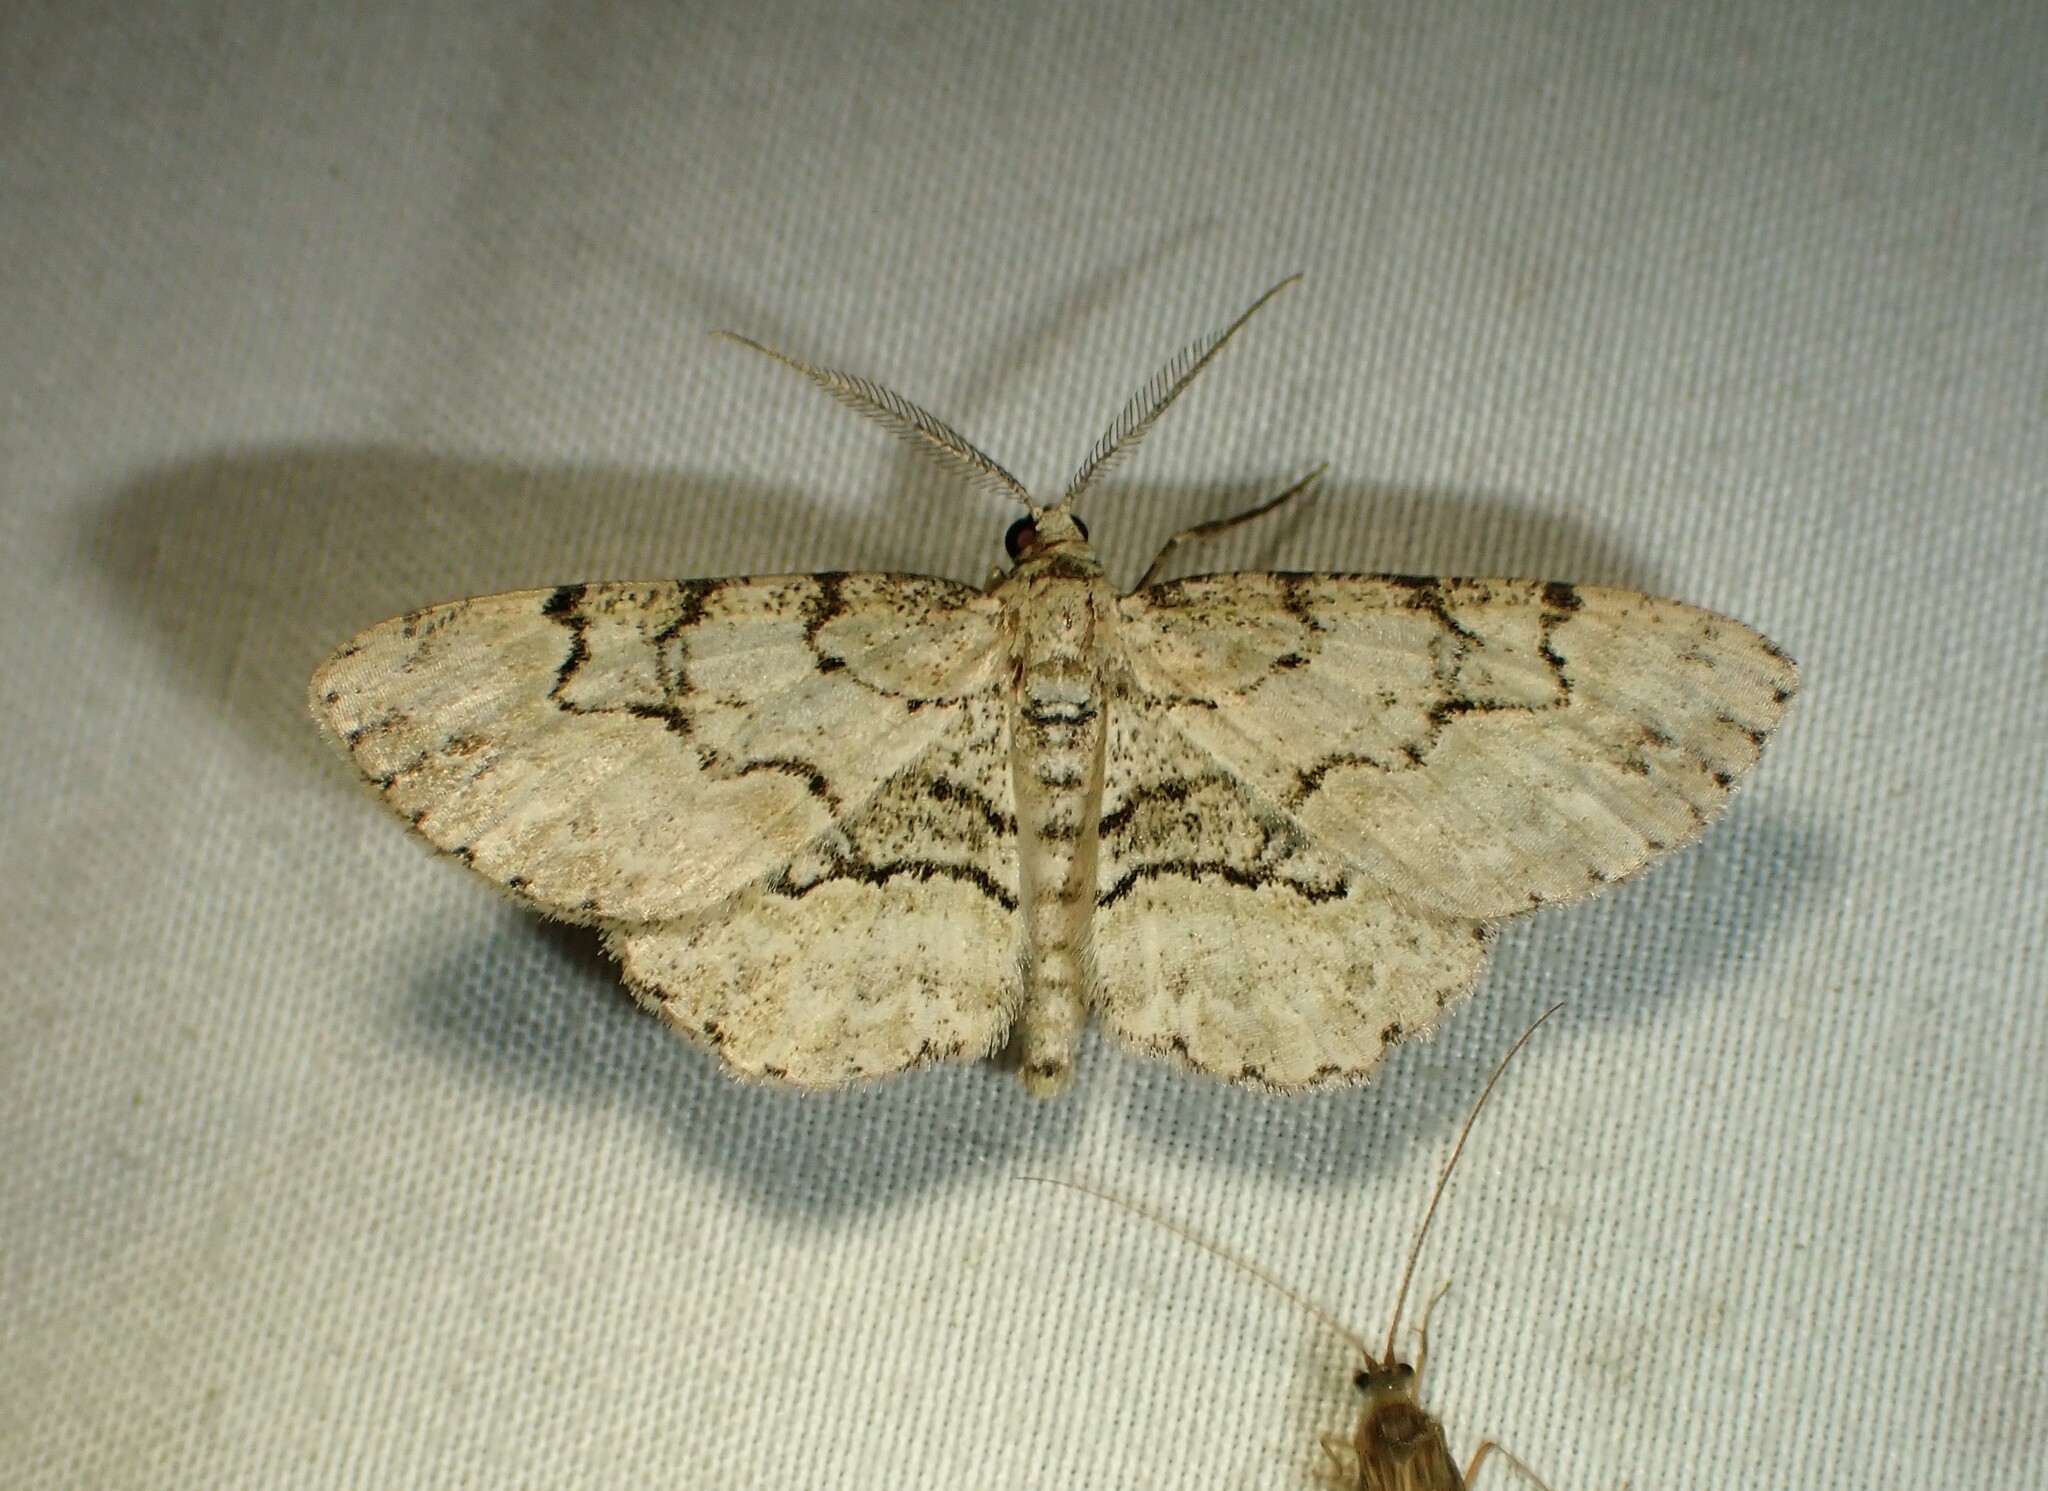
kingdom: Animalia
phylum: Arthropoda
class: Insecta
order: Lepidoptera
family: Geometridae
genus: Iridopsis
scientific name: Iridopsis ephyraria
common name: Pale-winged gray
